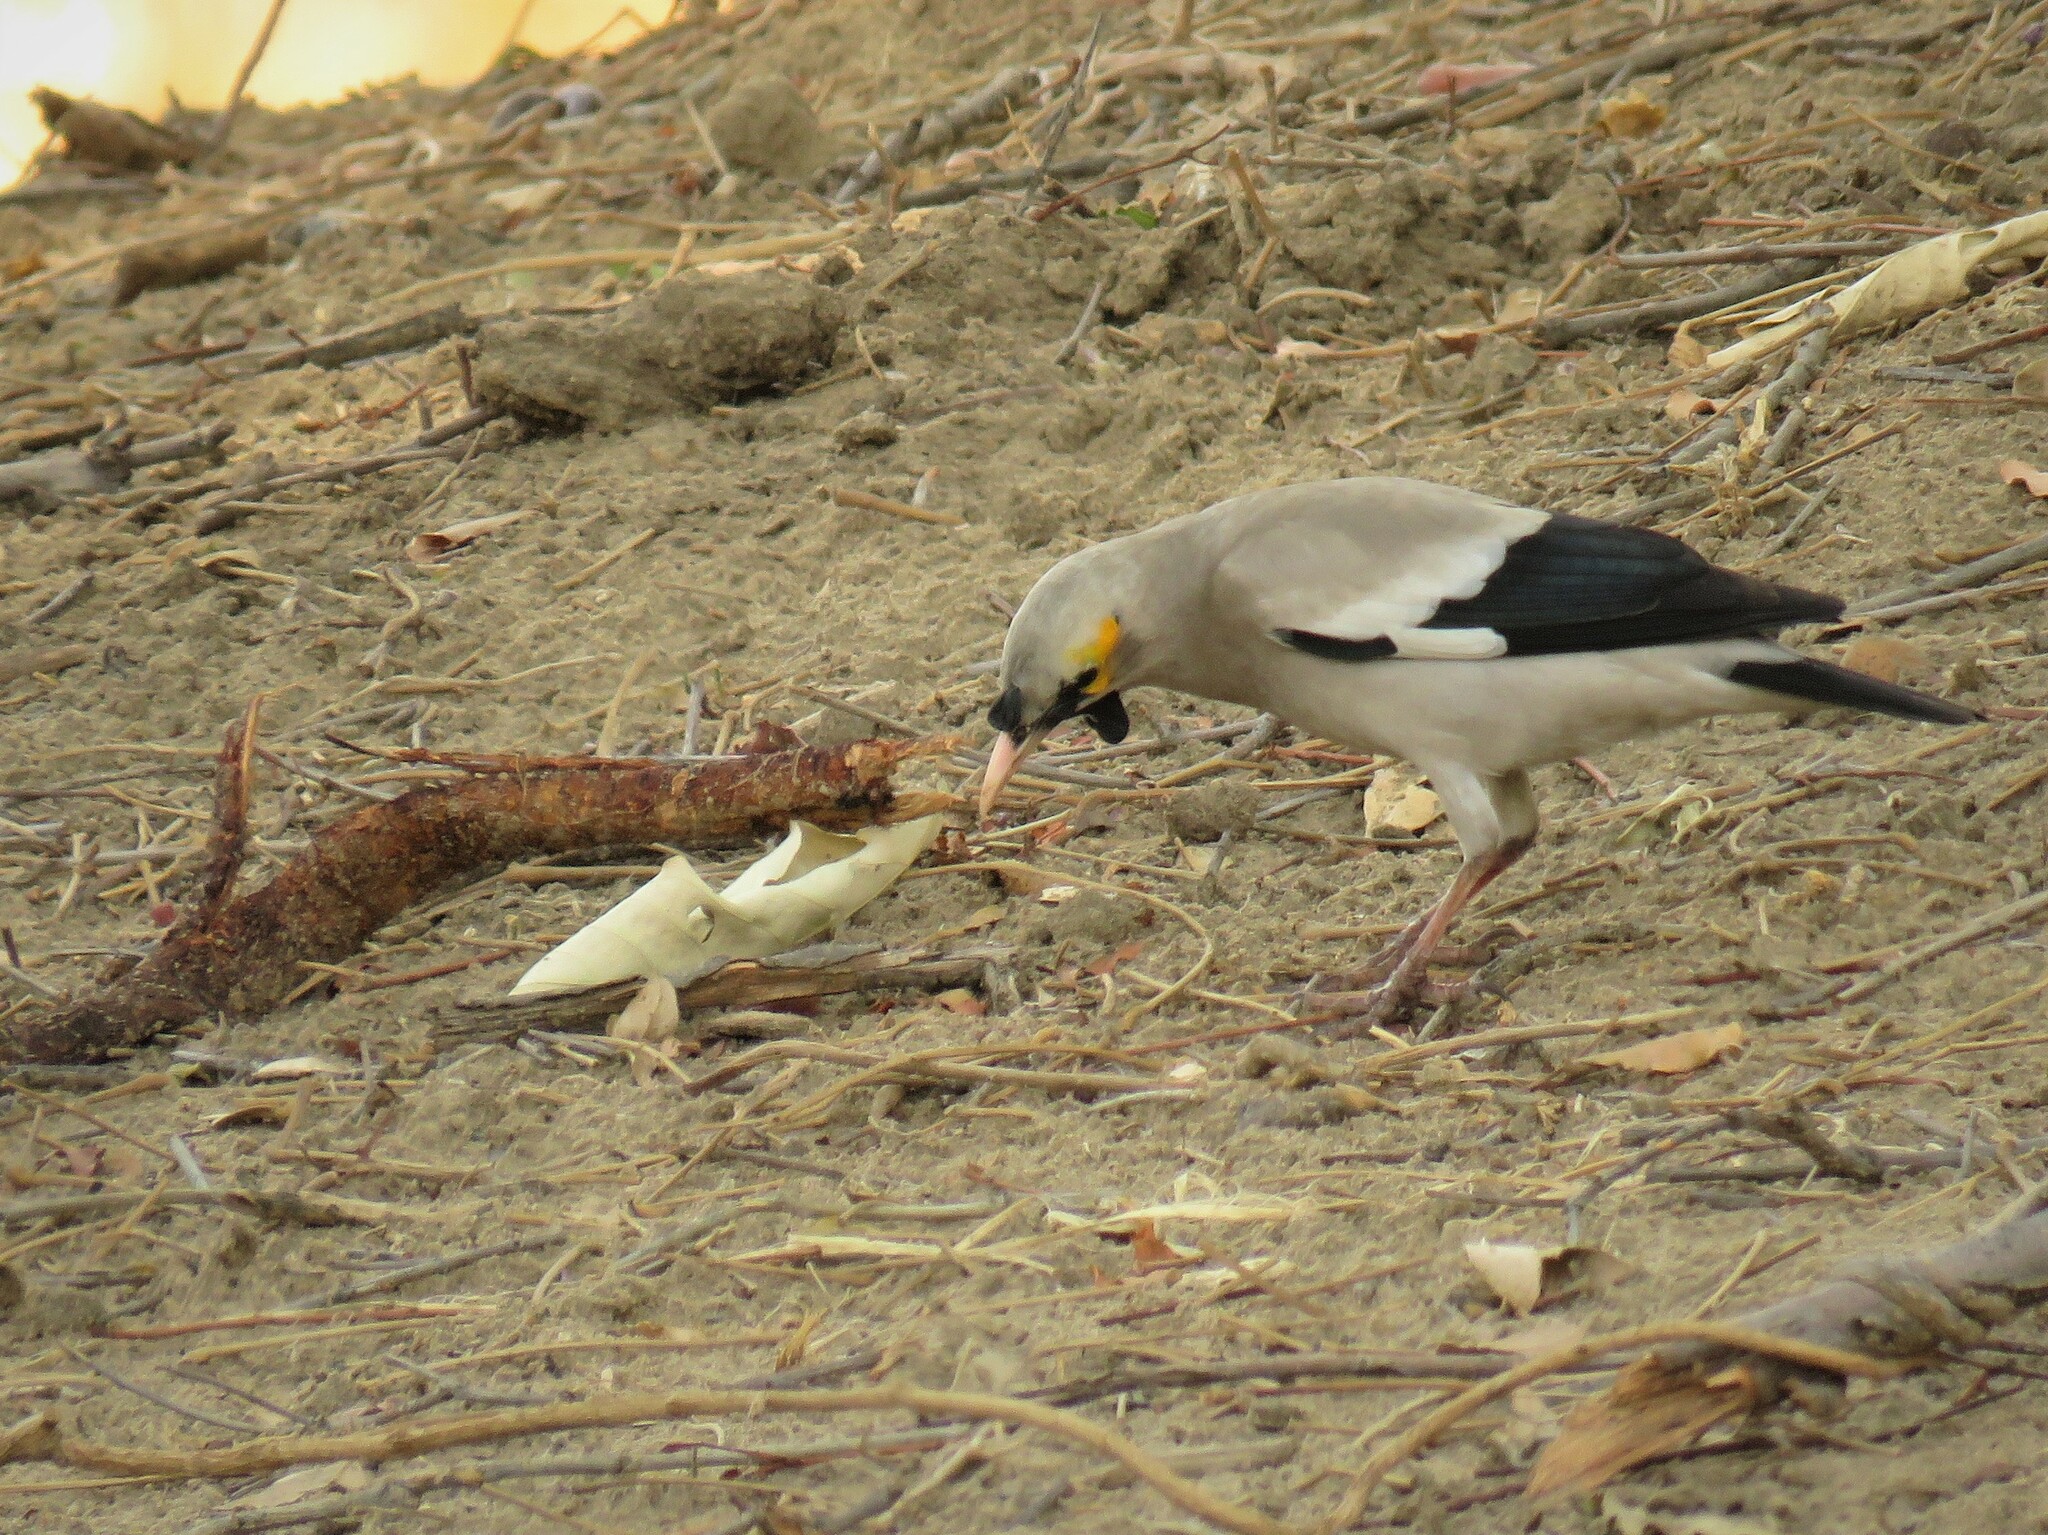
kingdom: Animalia
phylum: Chordata
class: Aves
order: Passeriformes
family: Sturnidae
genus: Creatophora
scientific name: Creatophora cinerea
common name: Wattled starling
